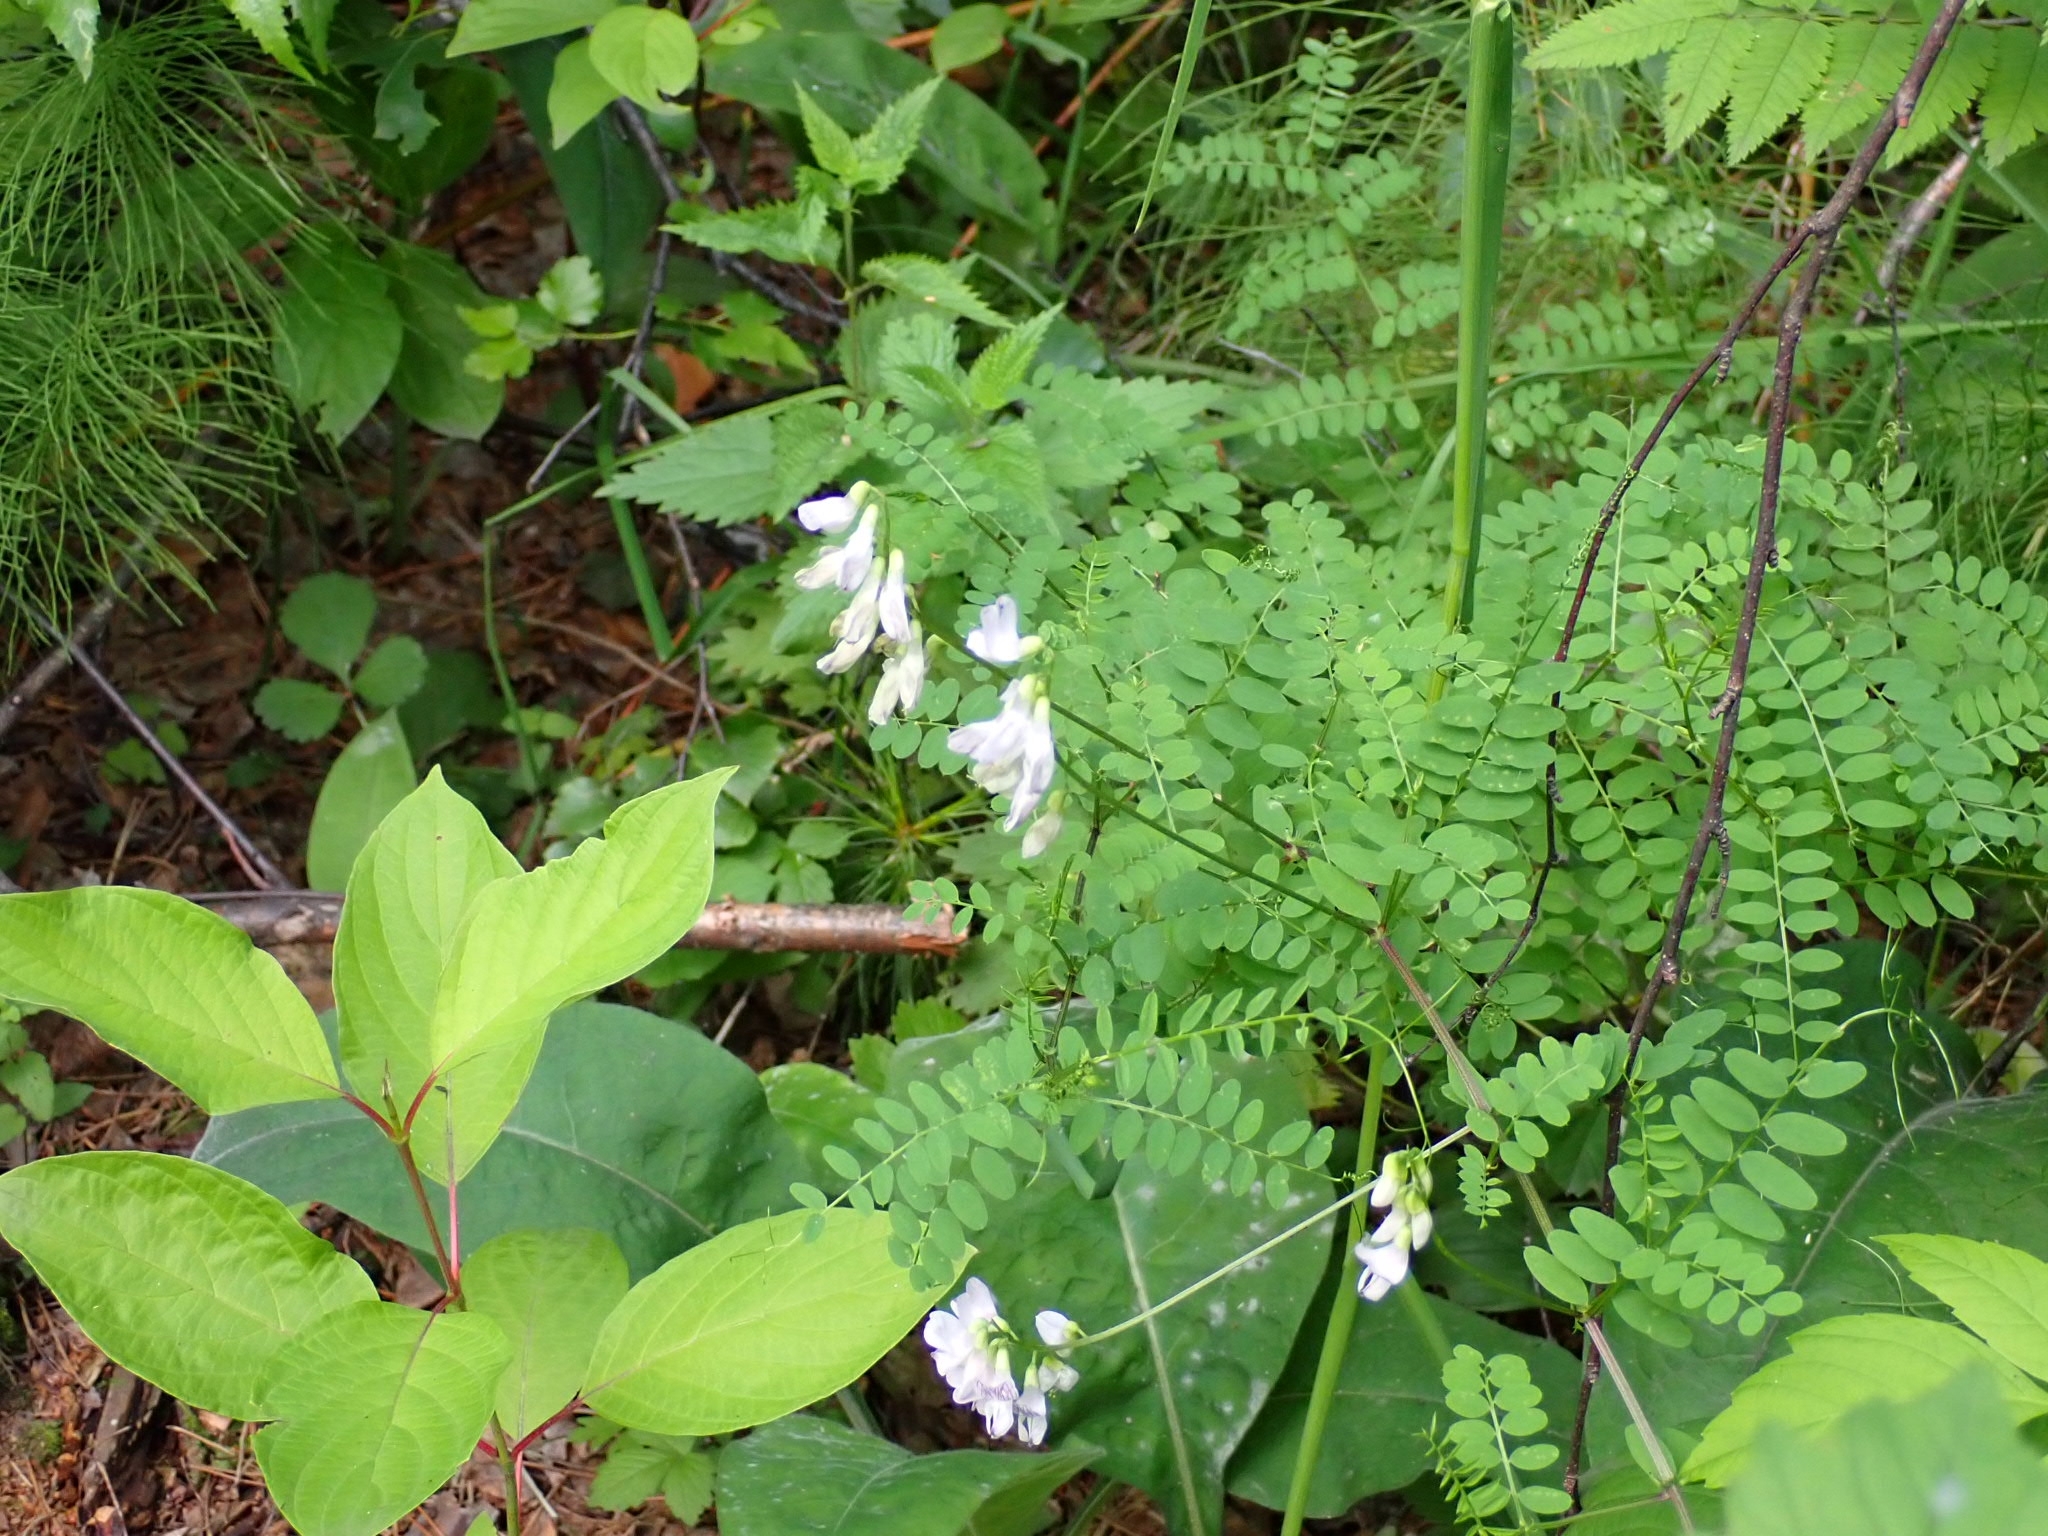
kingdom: Plantae
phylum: Tracheophyta
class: Magnoliopsida
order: Fabales
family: Fabaceae
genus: Vicia
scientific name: Vicia sylvatica
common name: Wood vetch
